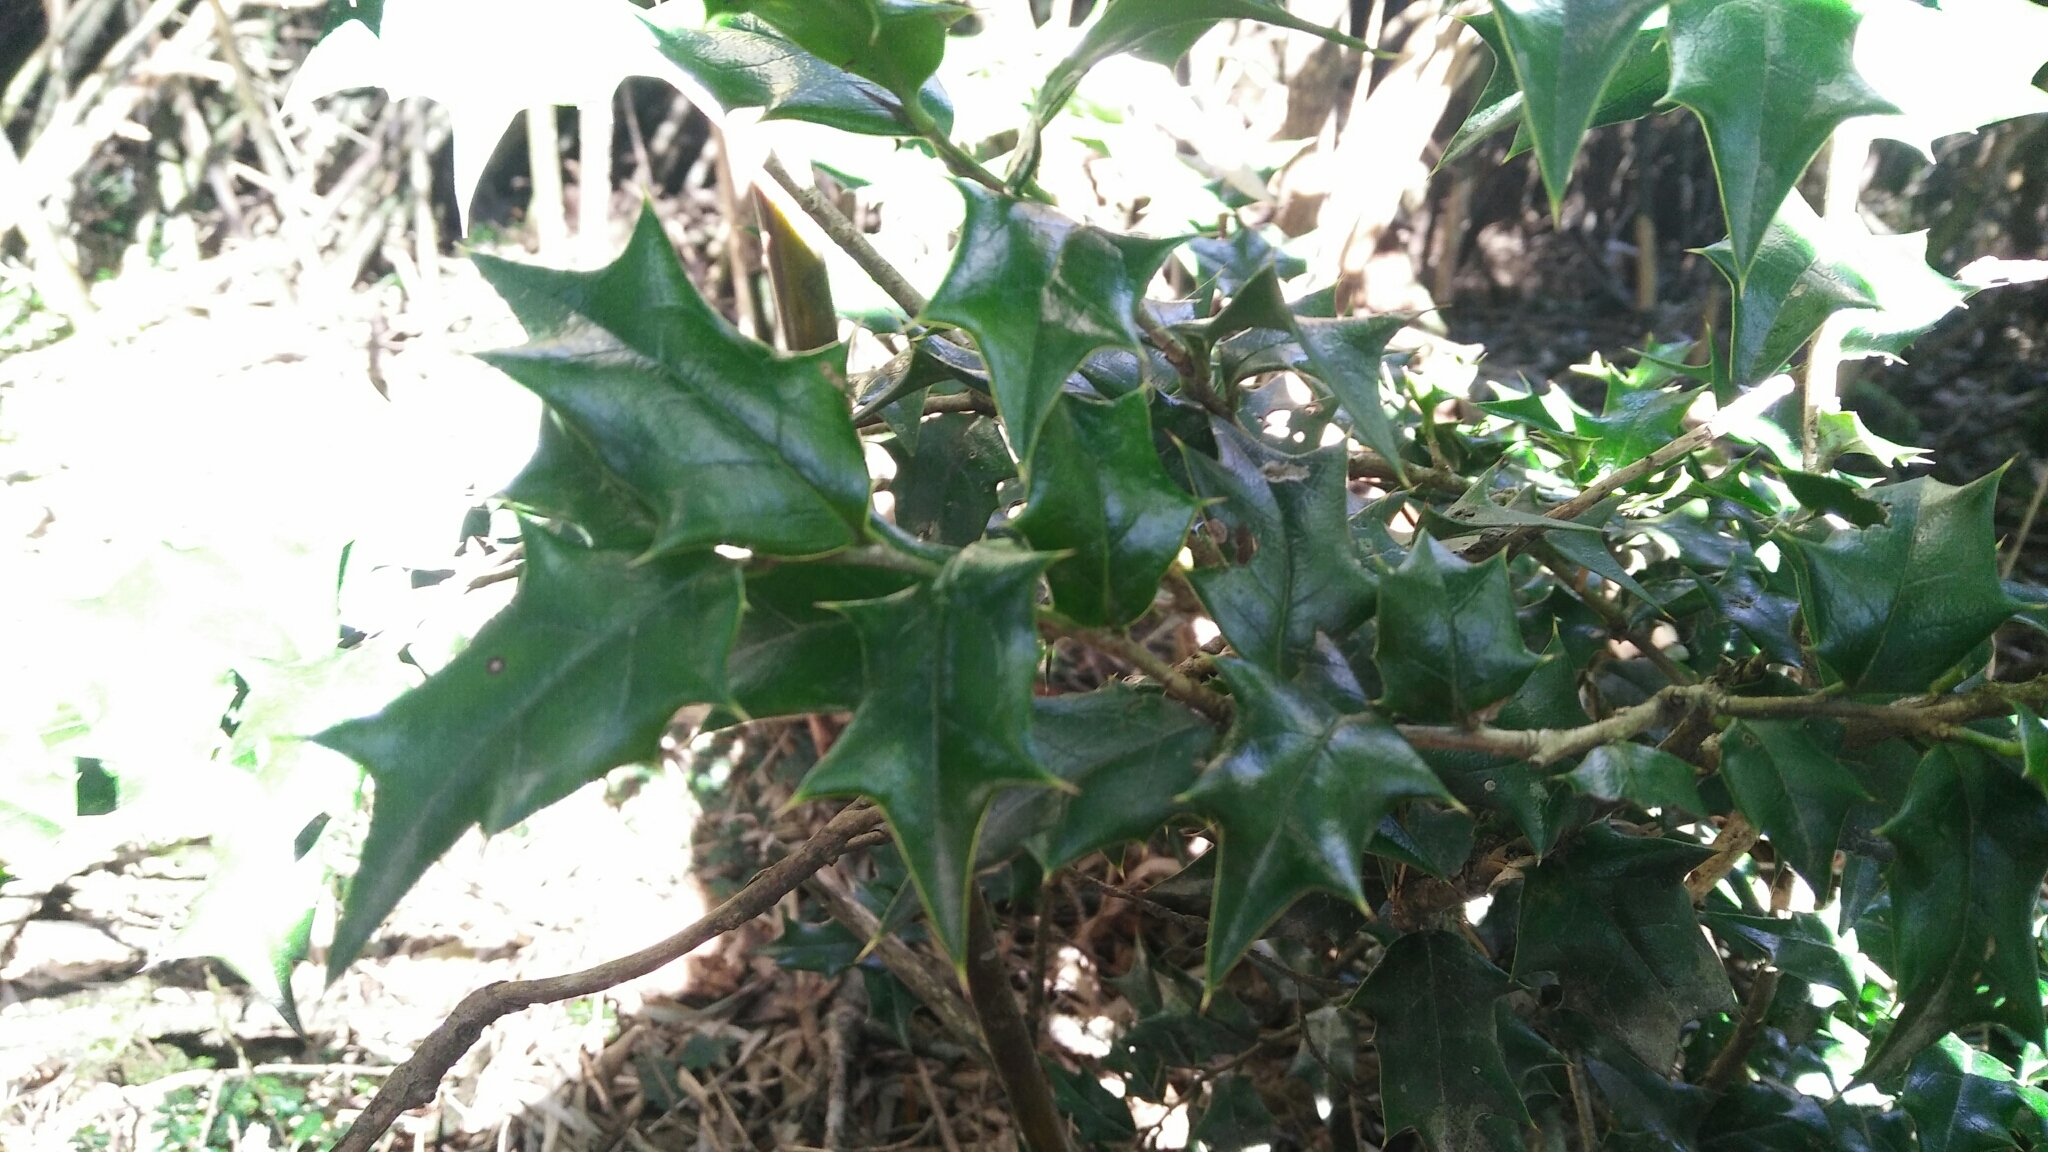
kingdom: Plantae
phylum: Tracheophyta
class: Magnoliopsida
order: Aquifoliales
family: Aquifoliaceae
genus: Ilex
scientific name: Ilex bioritsensis
